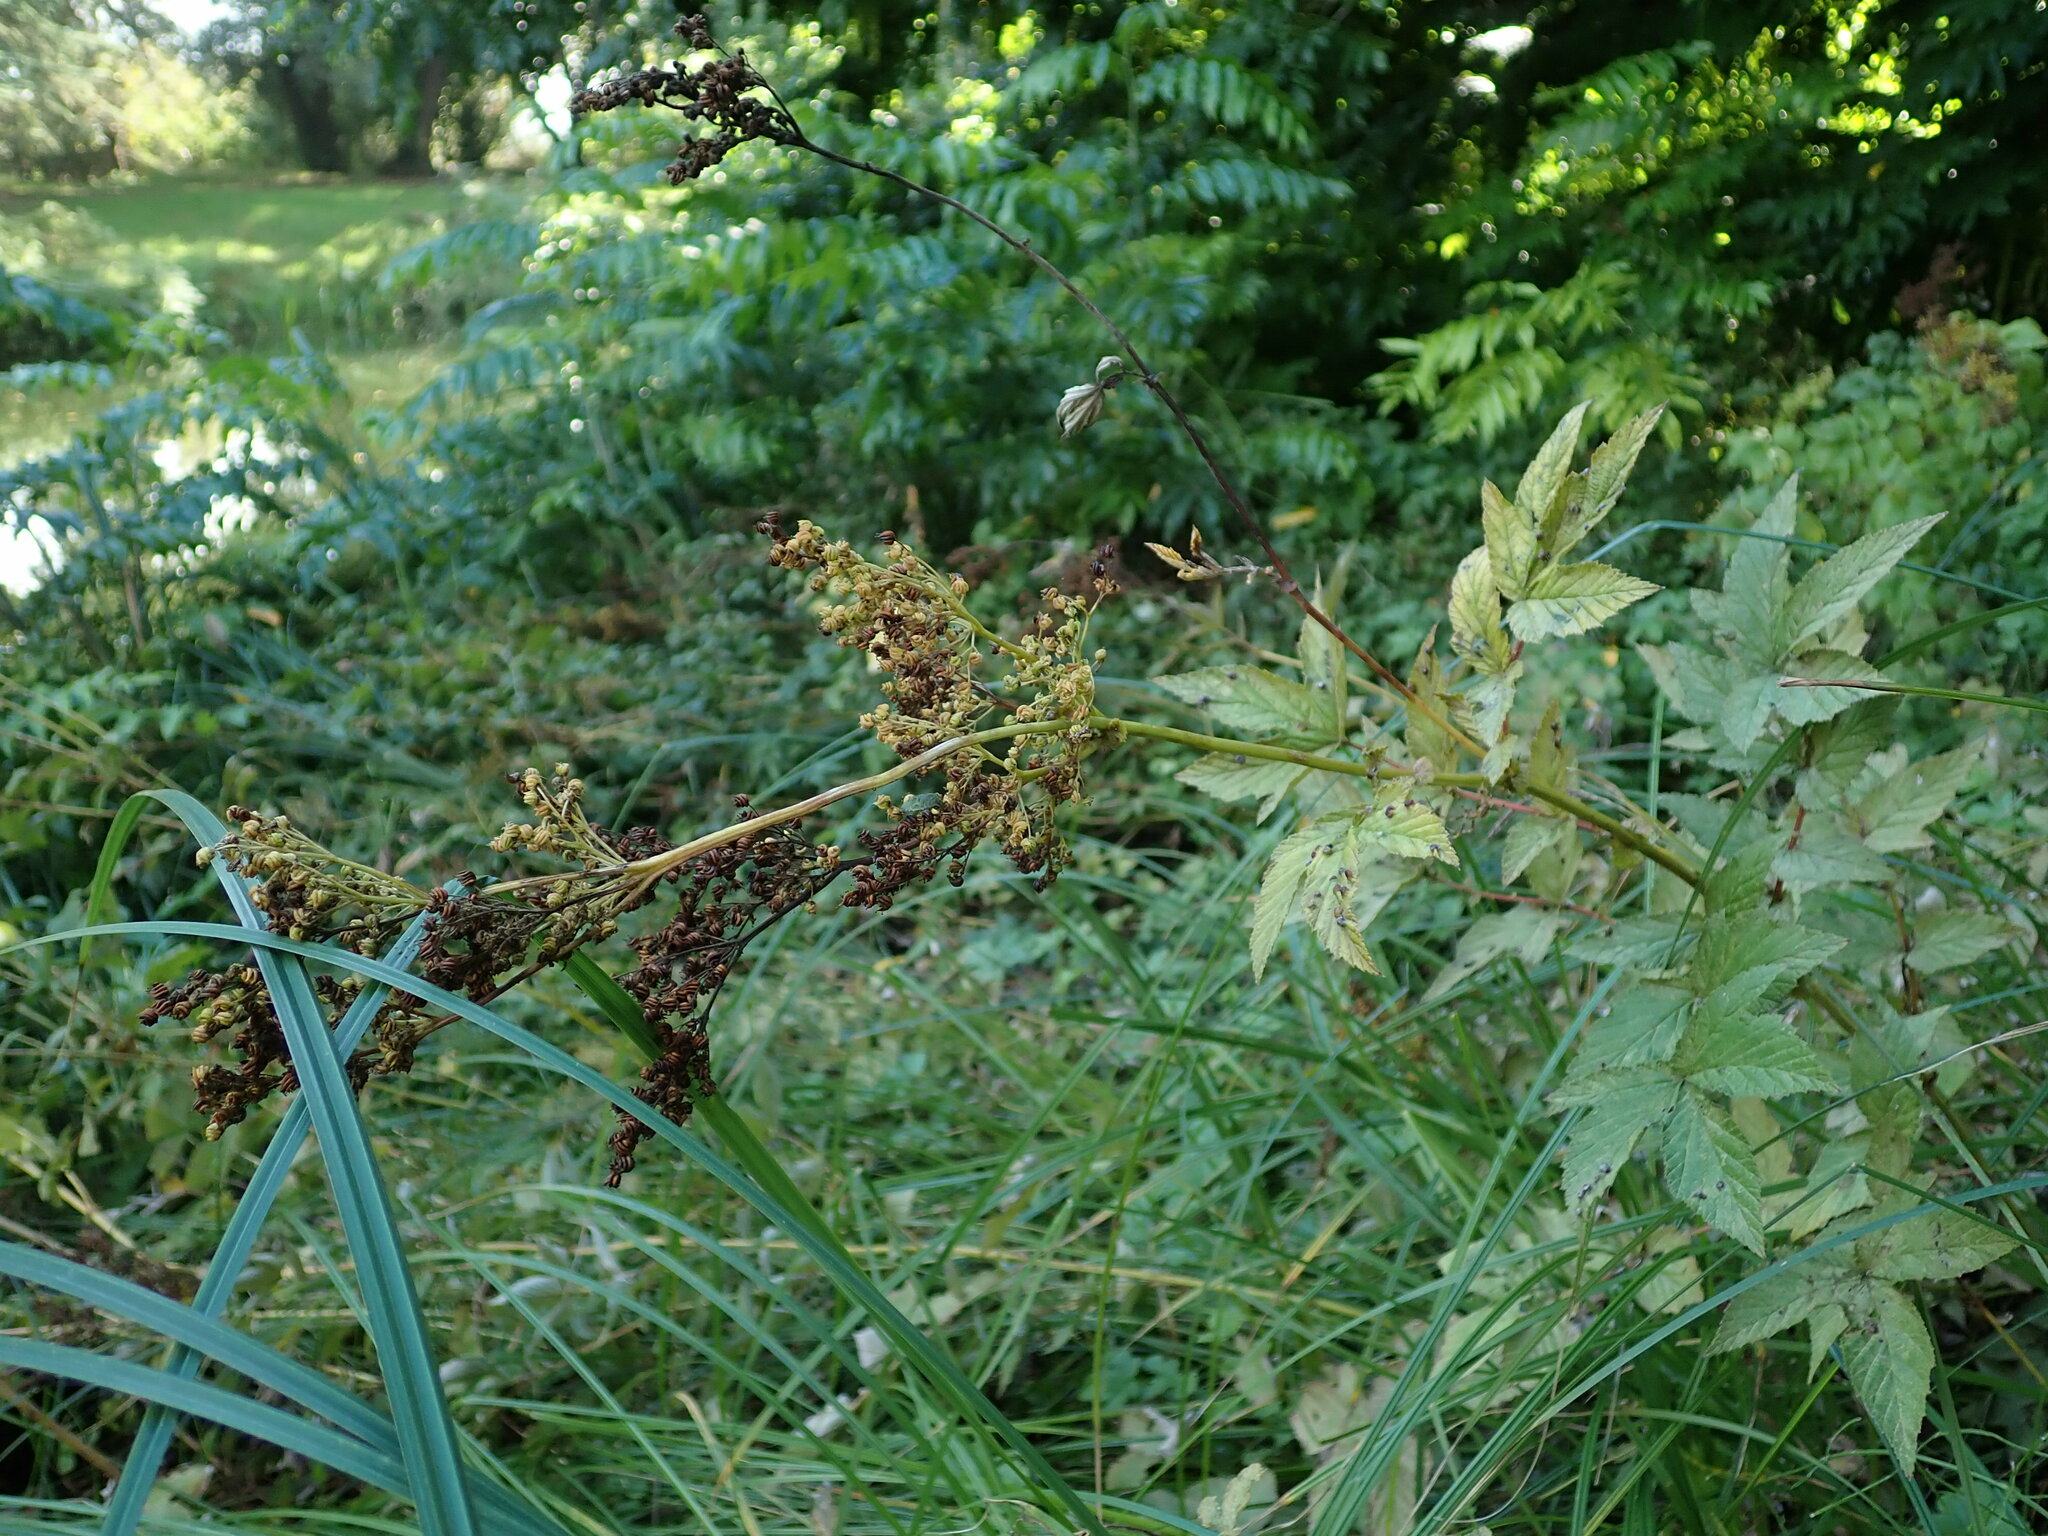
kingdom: Plantae
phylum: Tracheophyta
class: Magnoliopsida
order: Rosales
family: Rosaceae
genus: Filipendula
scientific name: Filipendula ulmaria
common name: Meadowsweet
